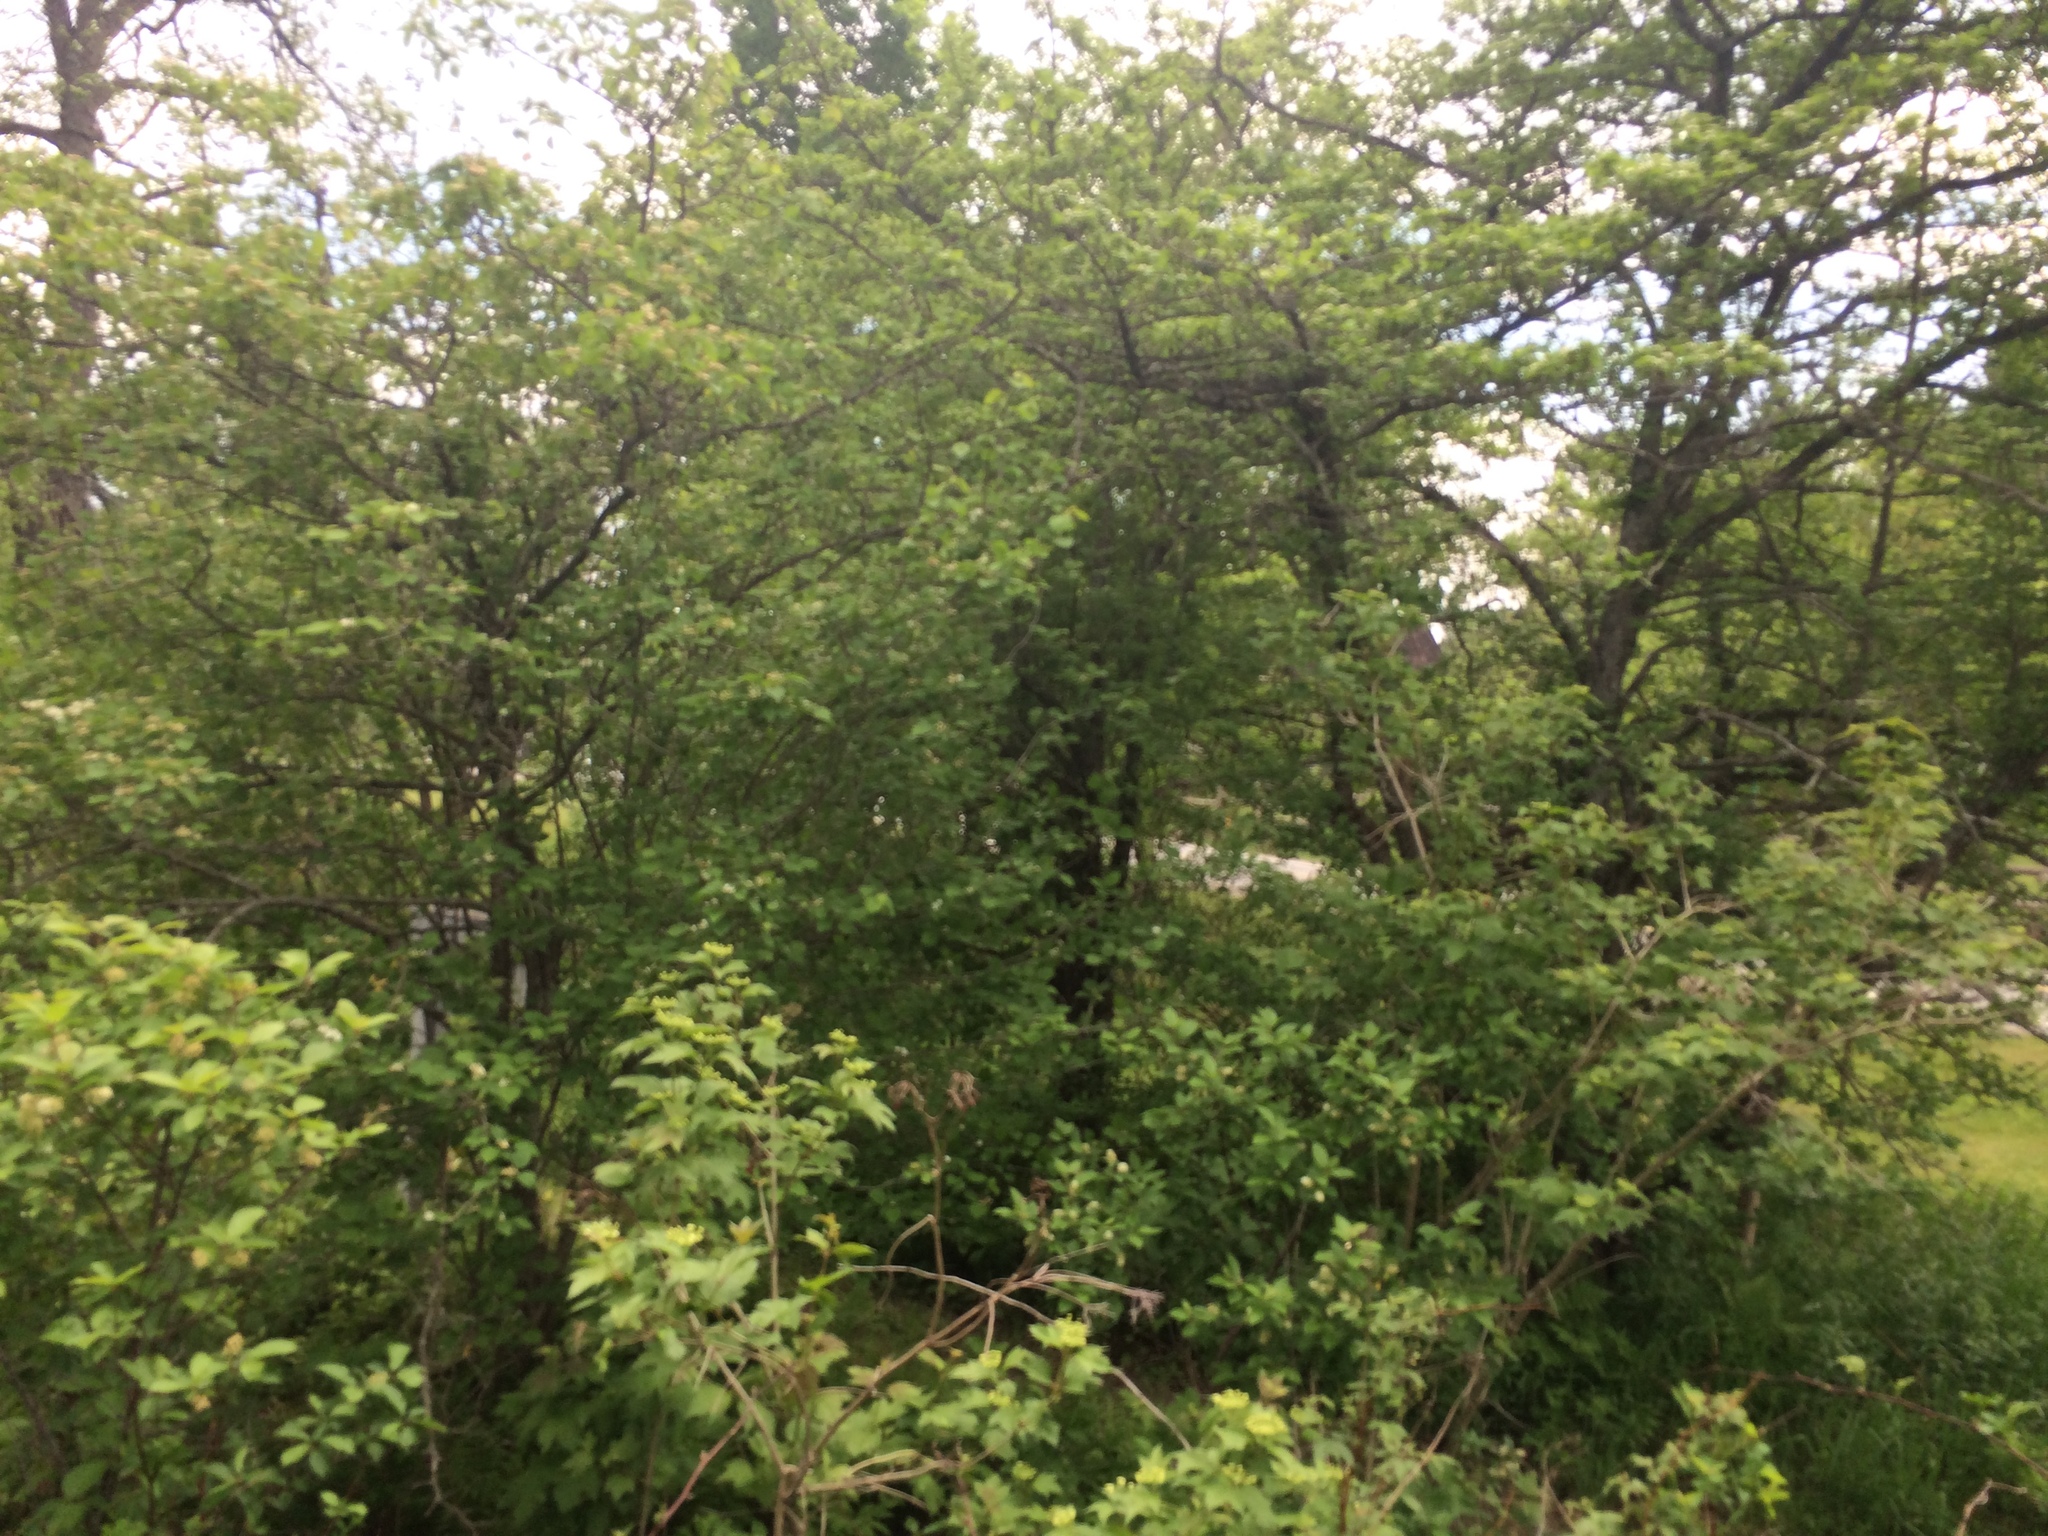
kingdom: Plantae
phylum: Tracheophyta
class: Magnoliopsida
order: Rosales
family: Rosaceae
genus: Crataegus
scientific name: Crataegus punctata
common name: Dotted hawthorn
